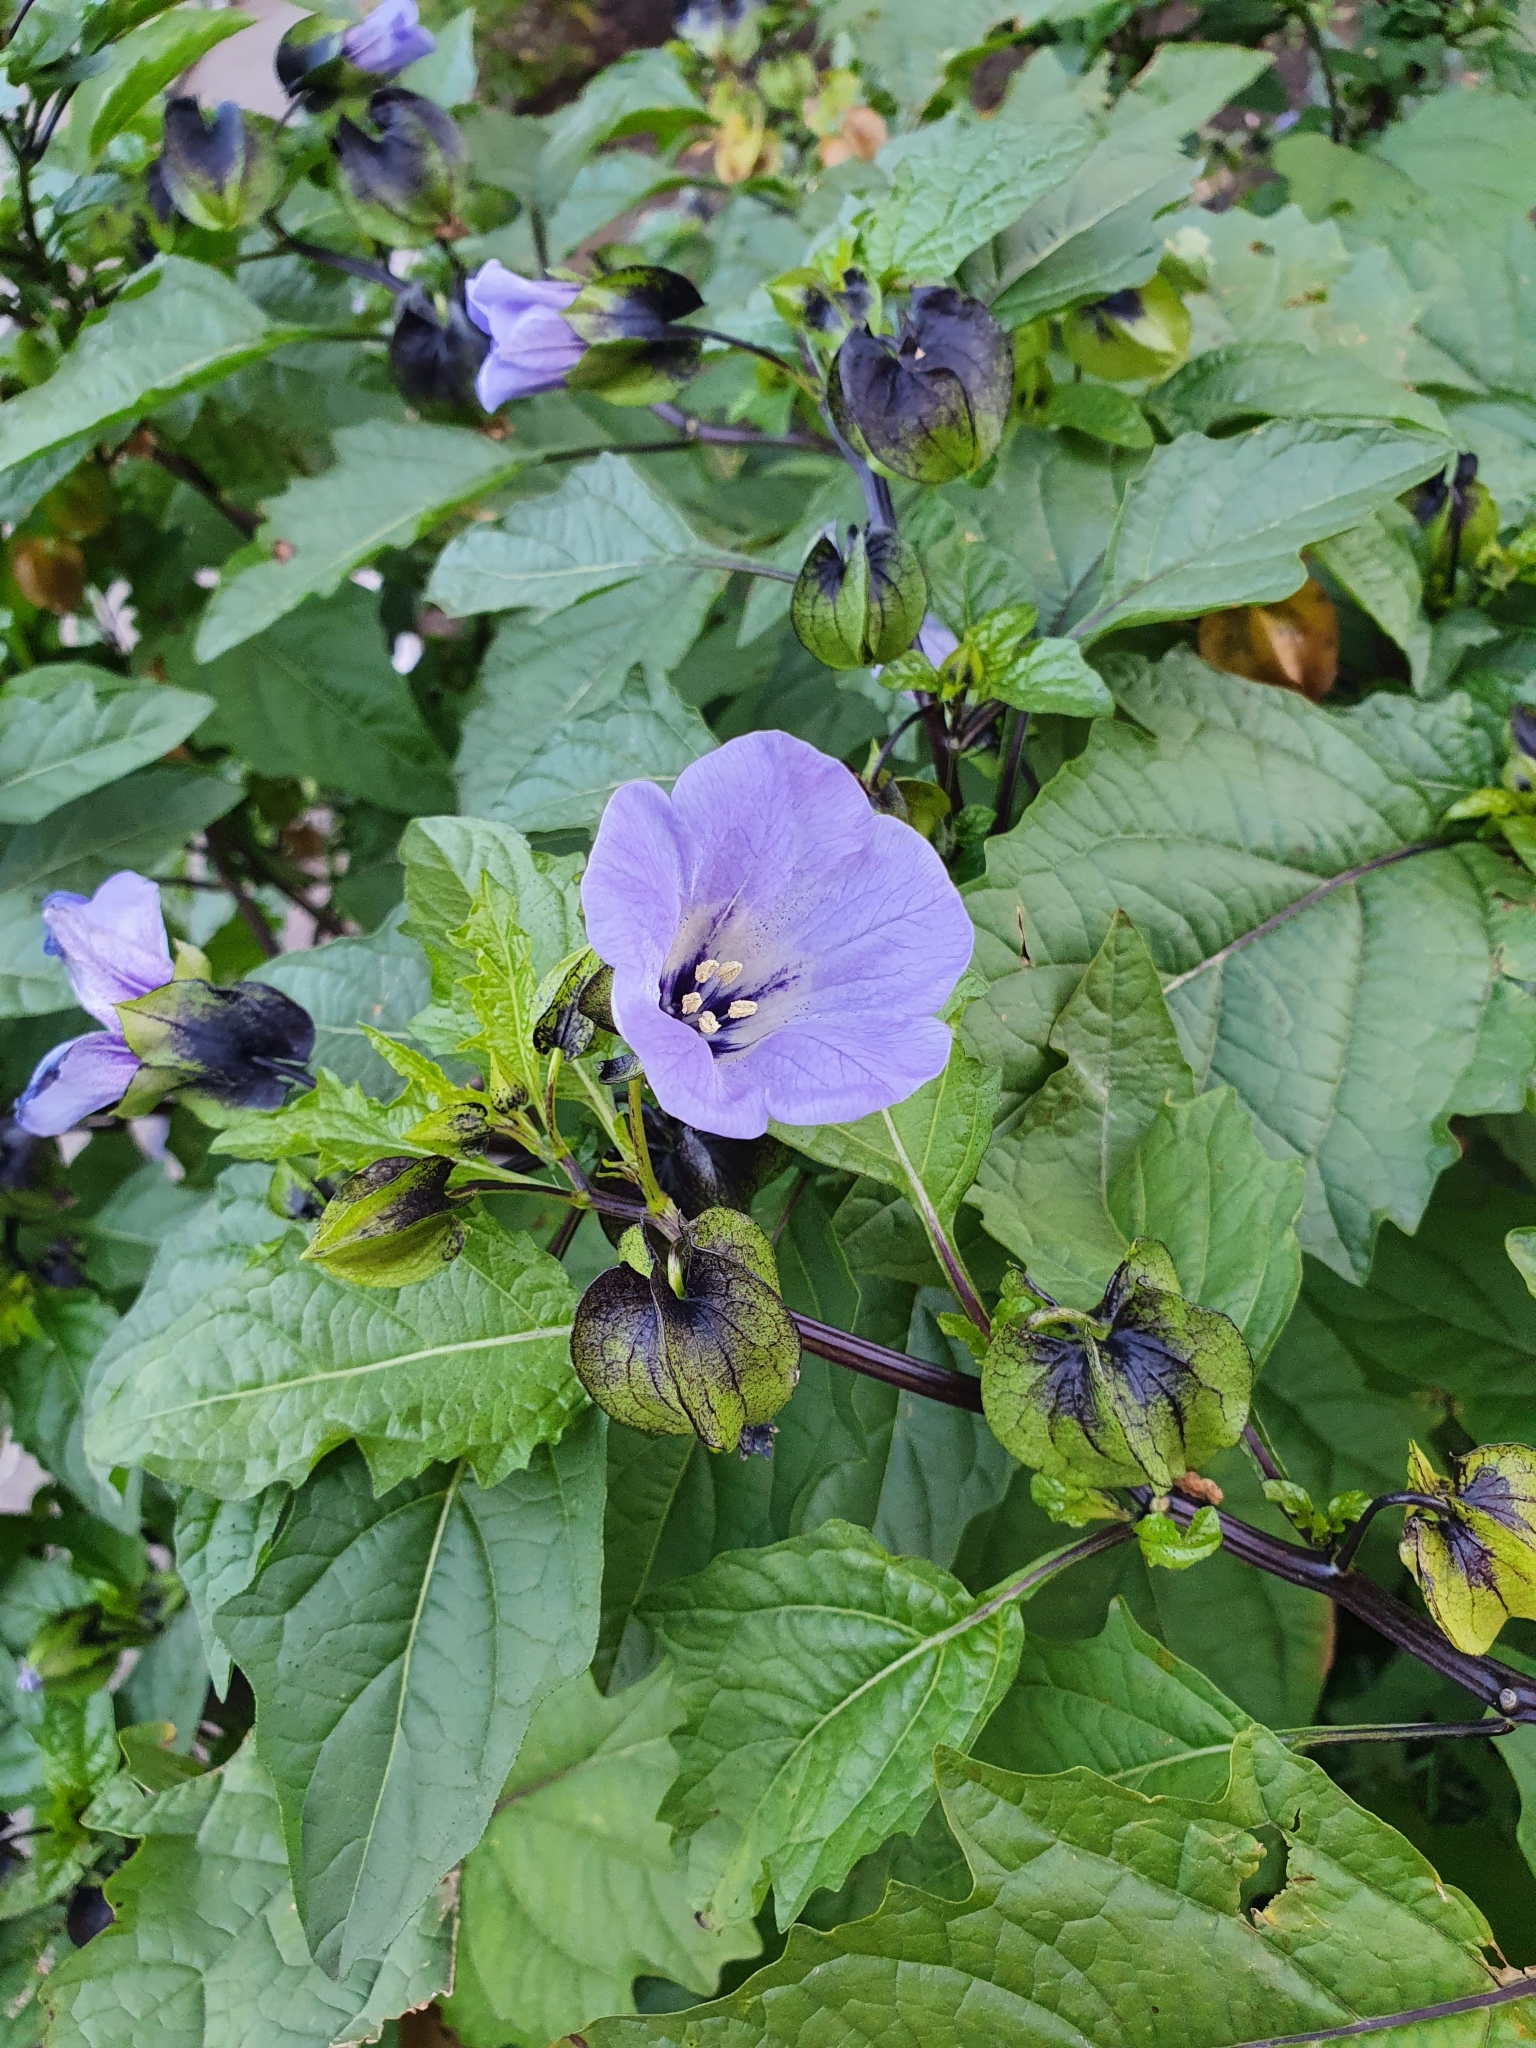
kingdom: Plantae
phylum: Tracheophyta
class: Magnoliopsida
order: Solanales
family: Solanaceae
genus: Nicandra
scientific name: Nicandra physalodes
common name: Apple-of-peru
